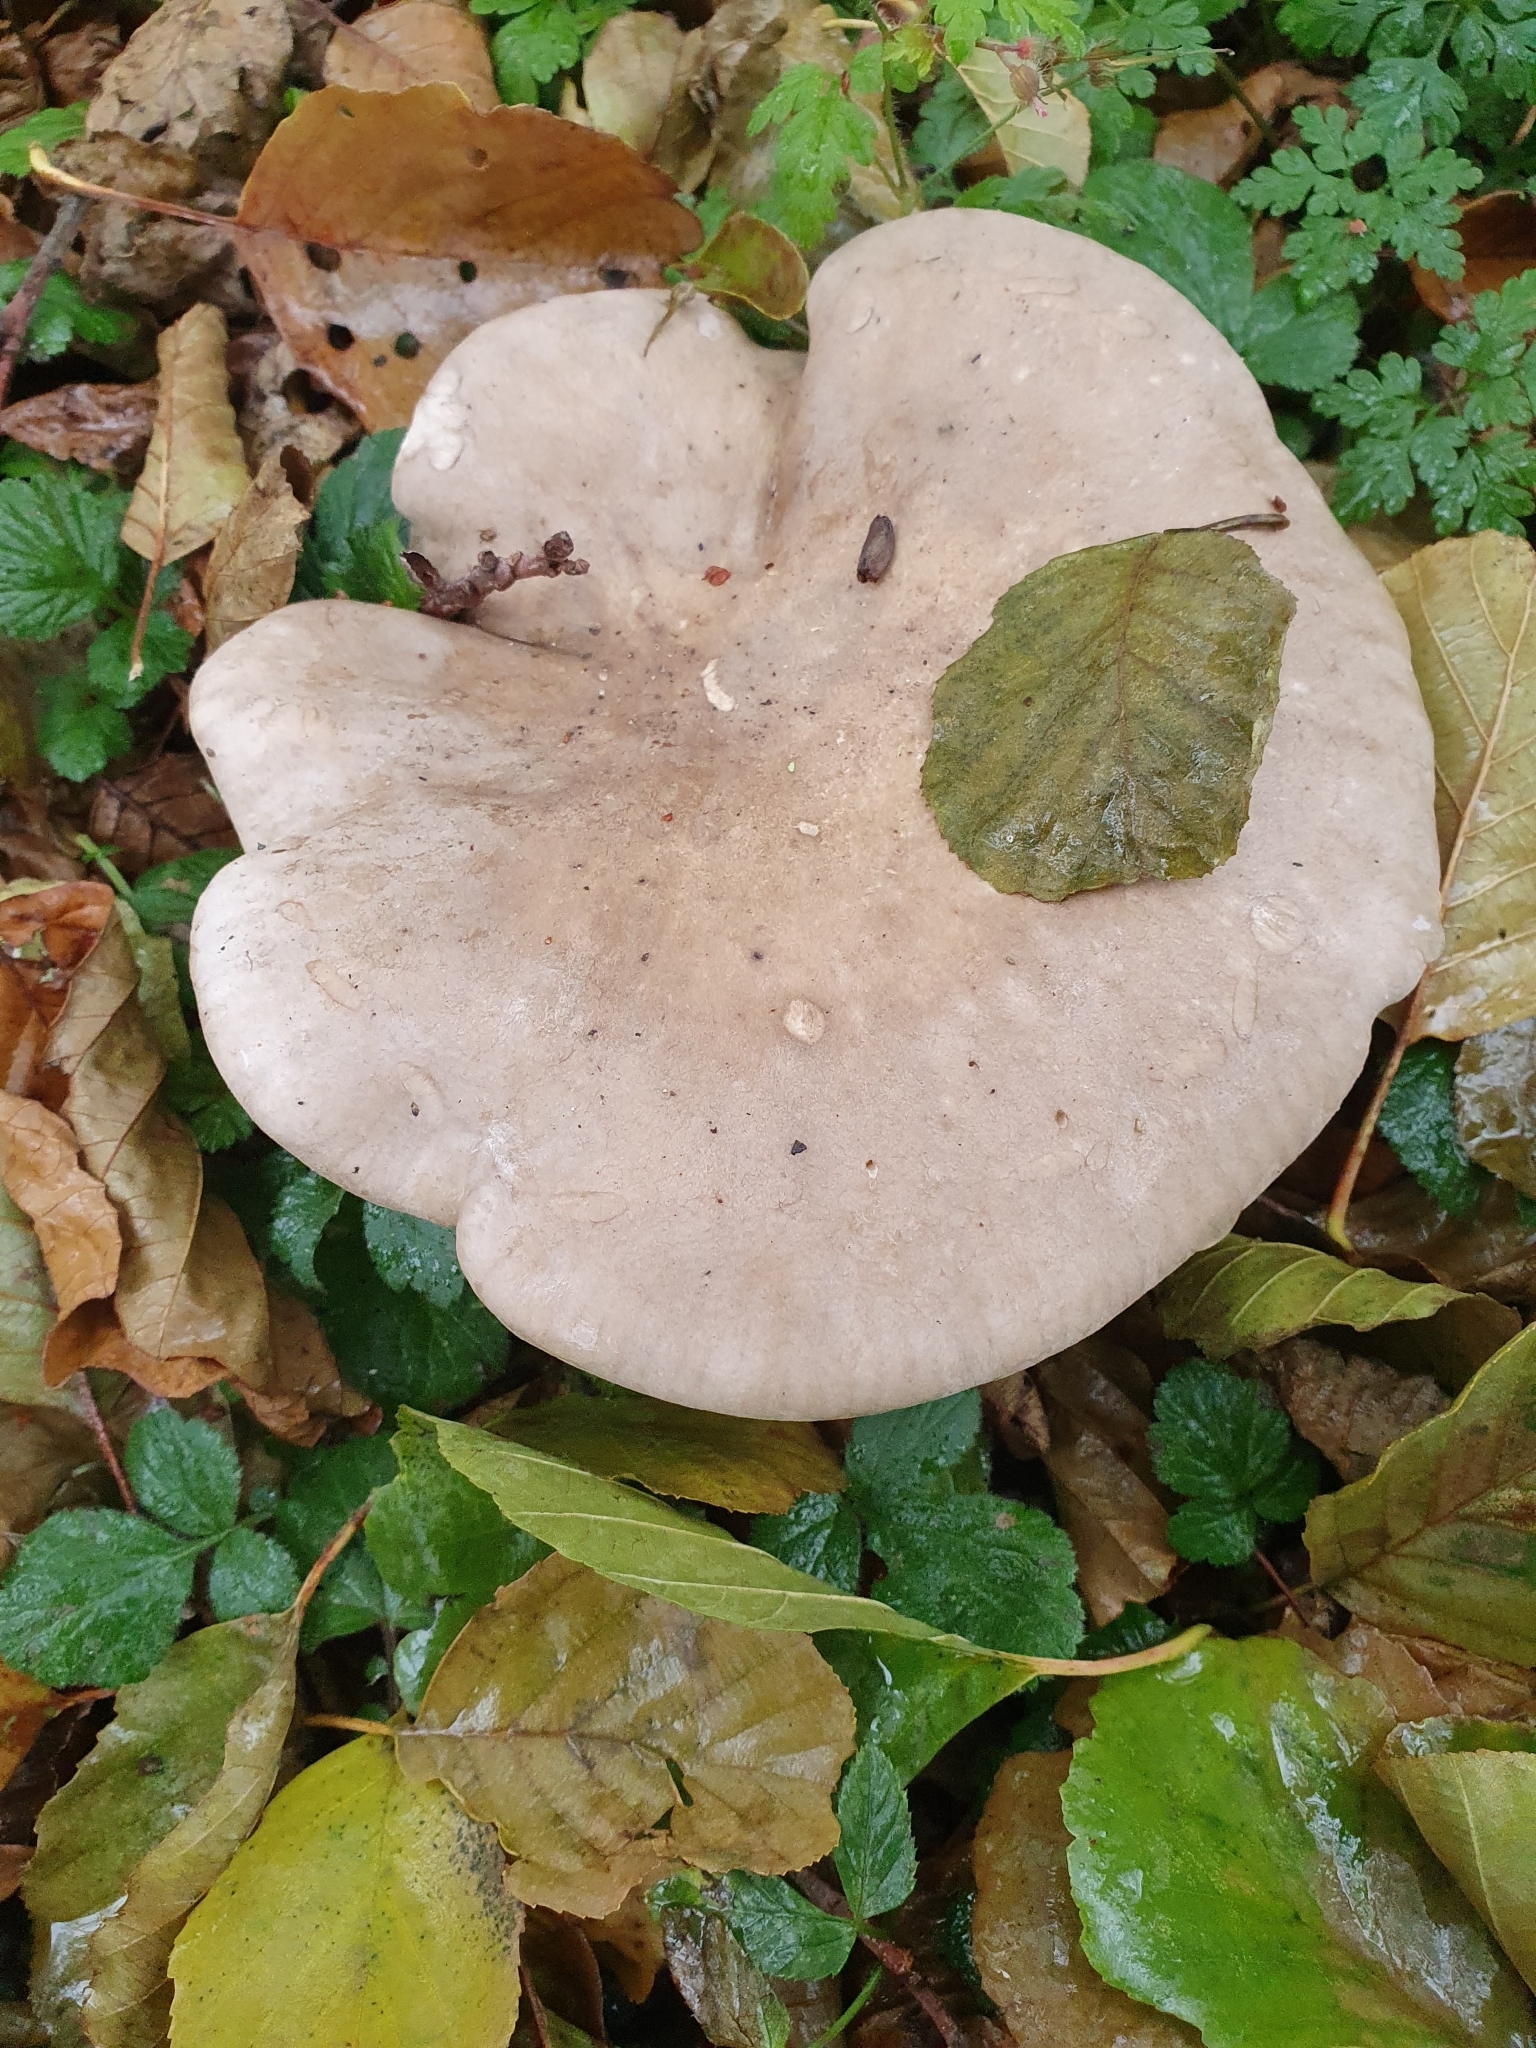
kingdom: Fungi
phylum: Basidiomycota
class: Agaricomycetes
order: Agaricales
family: Tricholomataceae
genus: Clitocybe
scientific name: Clitocybe nebularis
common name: Clouded agaric
